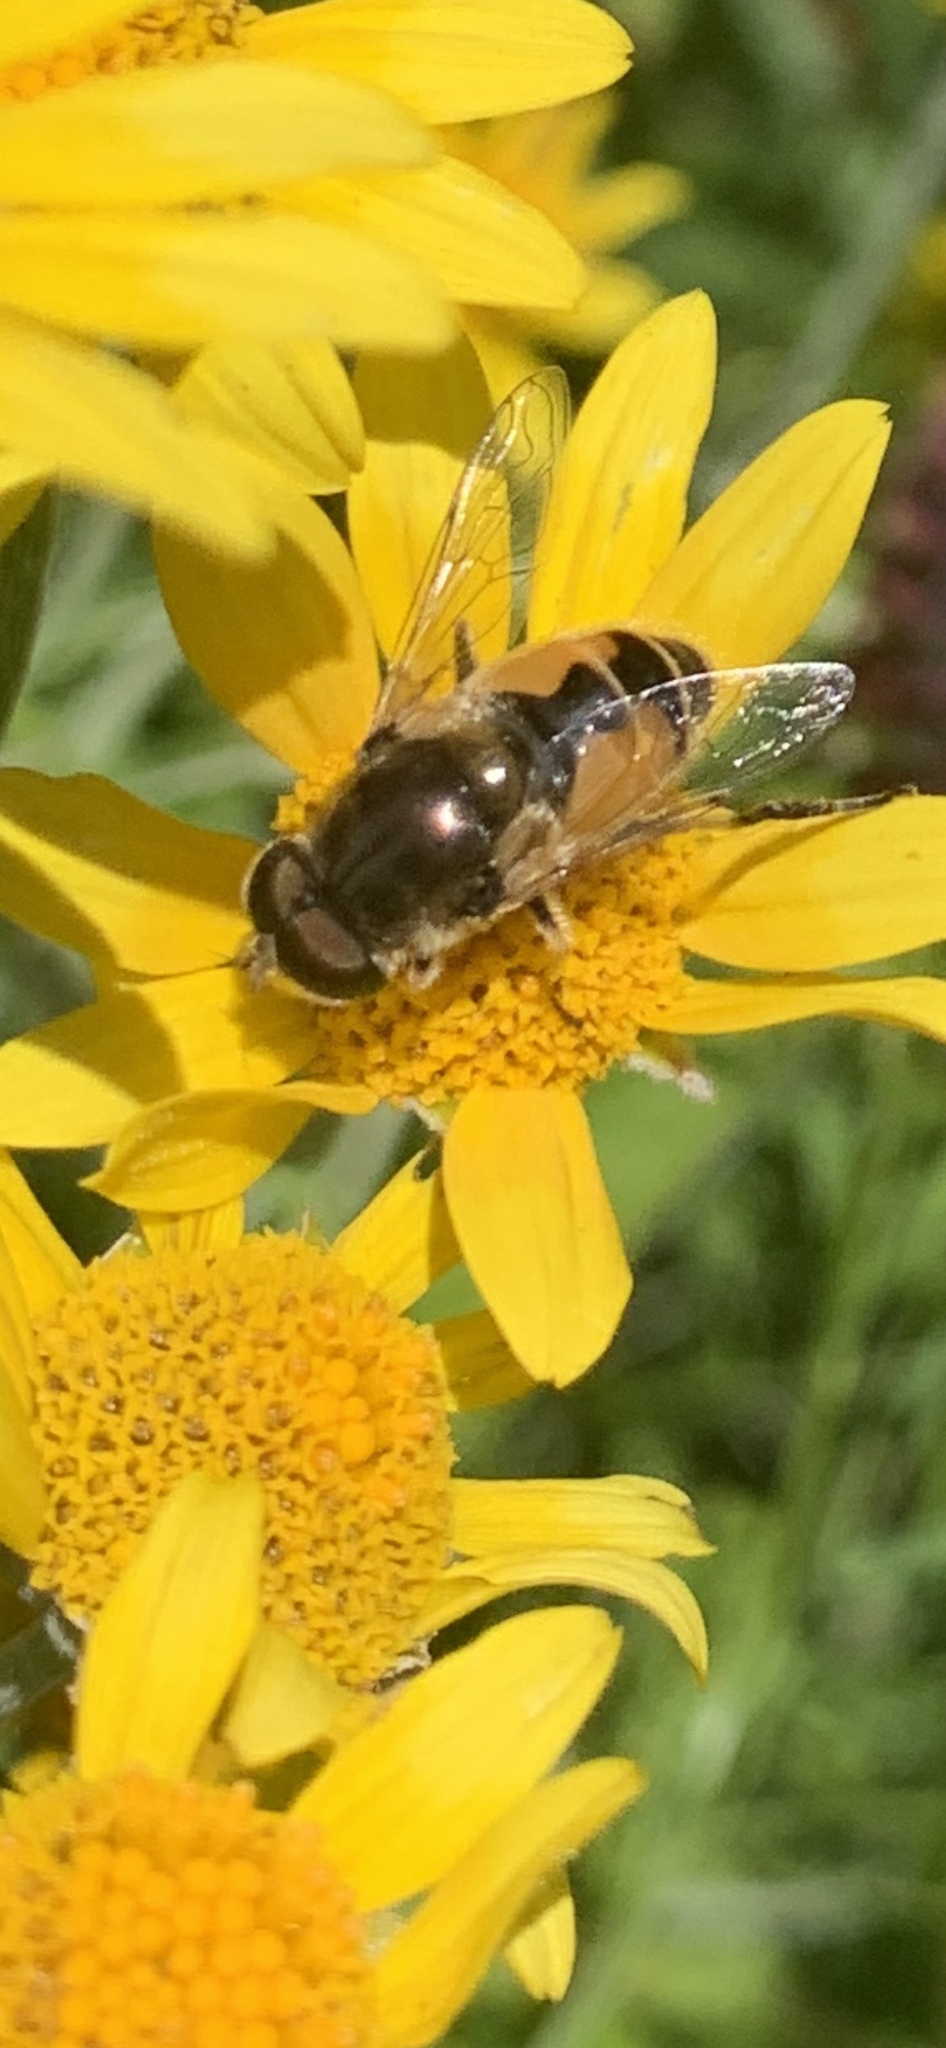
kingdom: Animalia
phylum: Arthropoda
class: Insecta
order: Diptera
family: Syrphidae
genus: Eristalis
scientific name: Eristalis arbustorum
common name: Hover fly
